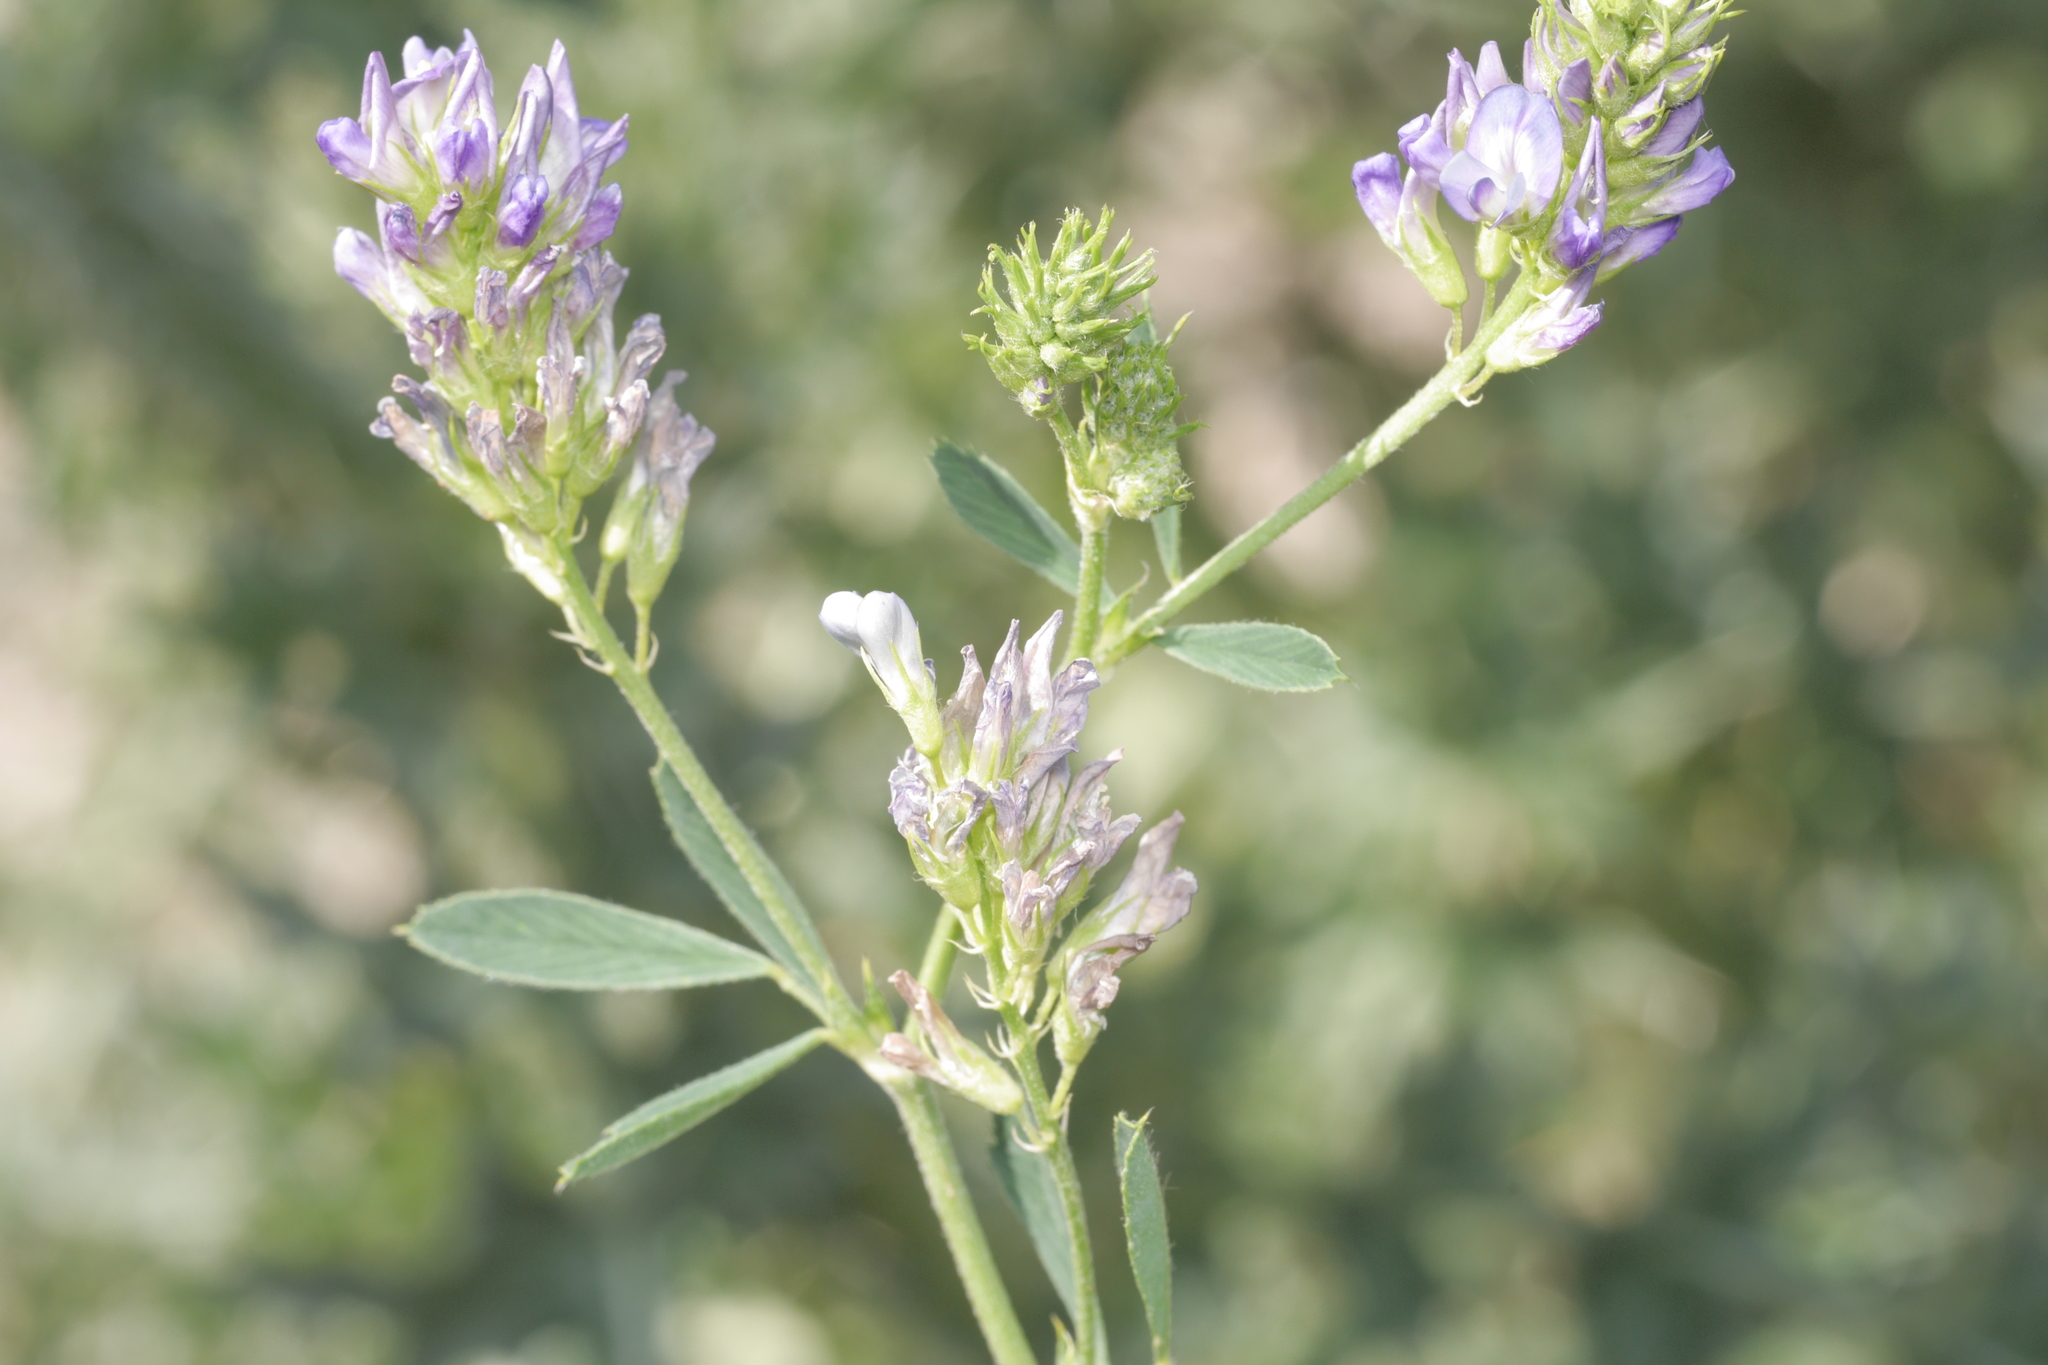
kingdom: Plantae
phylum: Tracheophyta
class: Magnoliopsida
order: Fabales
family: Fabaceae
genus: Medicago
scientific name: Medicago varia
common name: Sand lucerne
